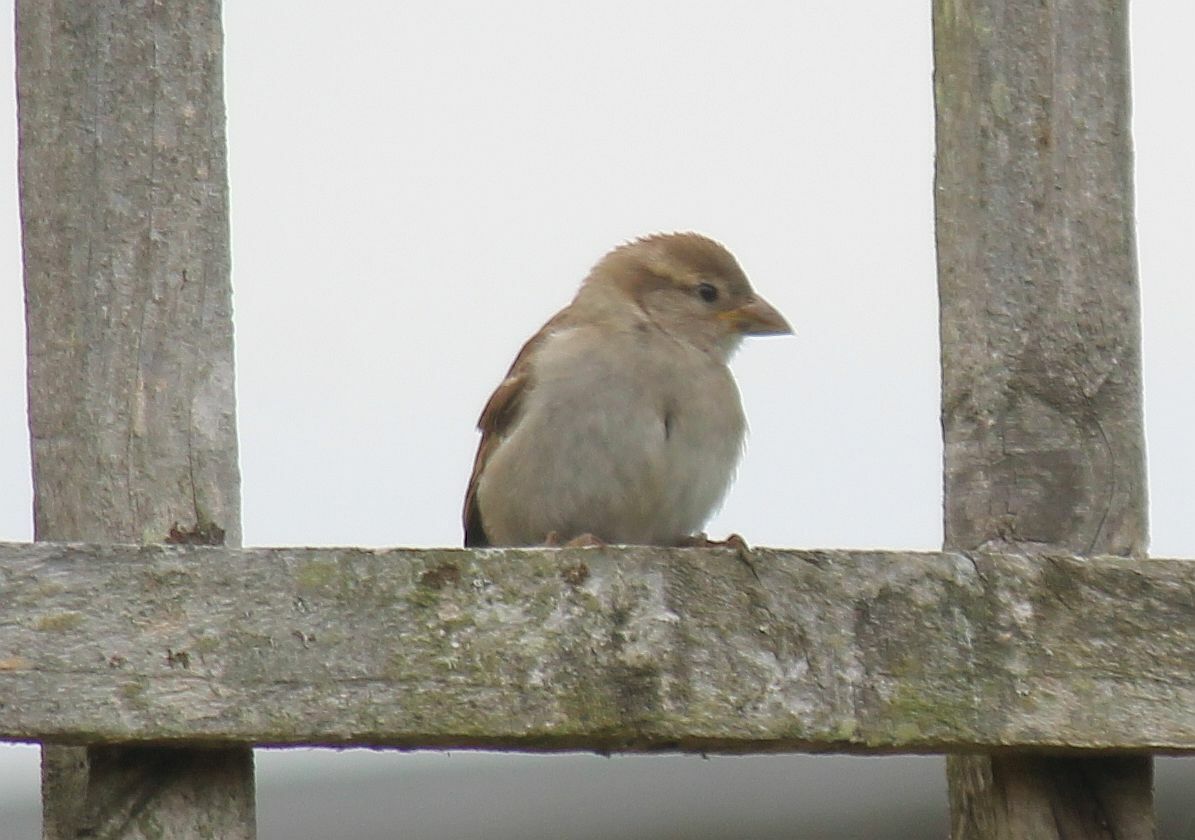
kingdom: Animalia
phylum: Chordata
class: Aves
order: Passeriformes
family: Passeridae
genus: Passer
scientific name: Passer domesticus
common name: House sparrow
